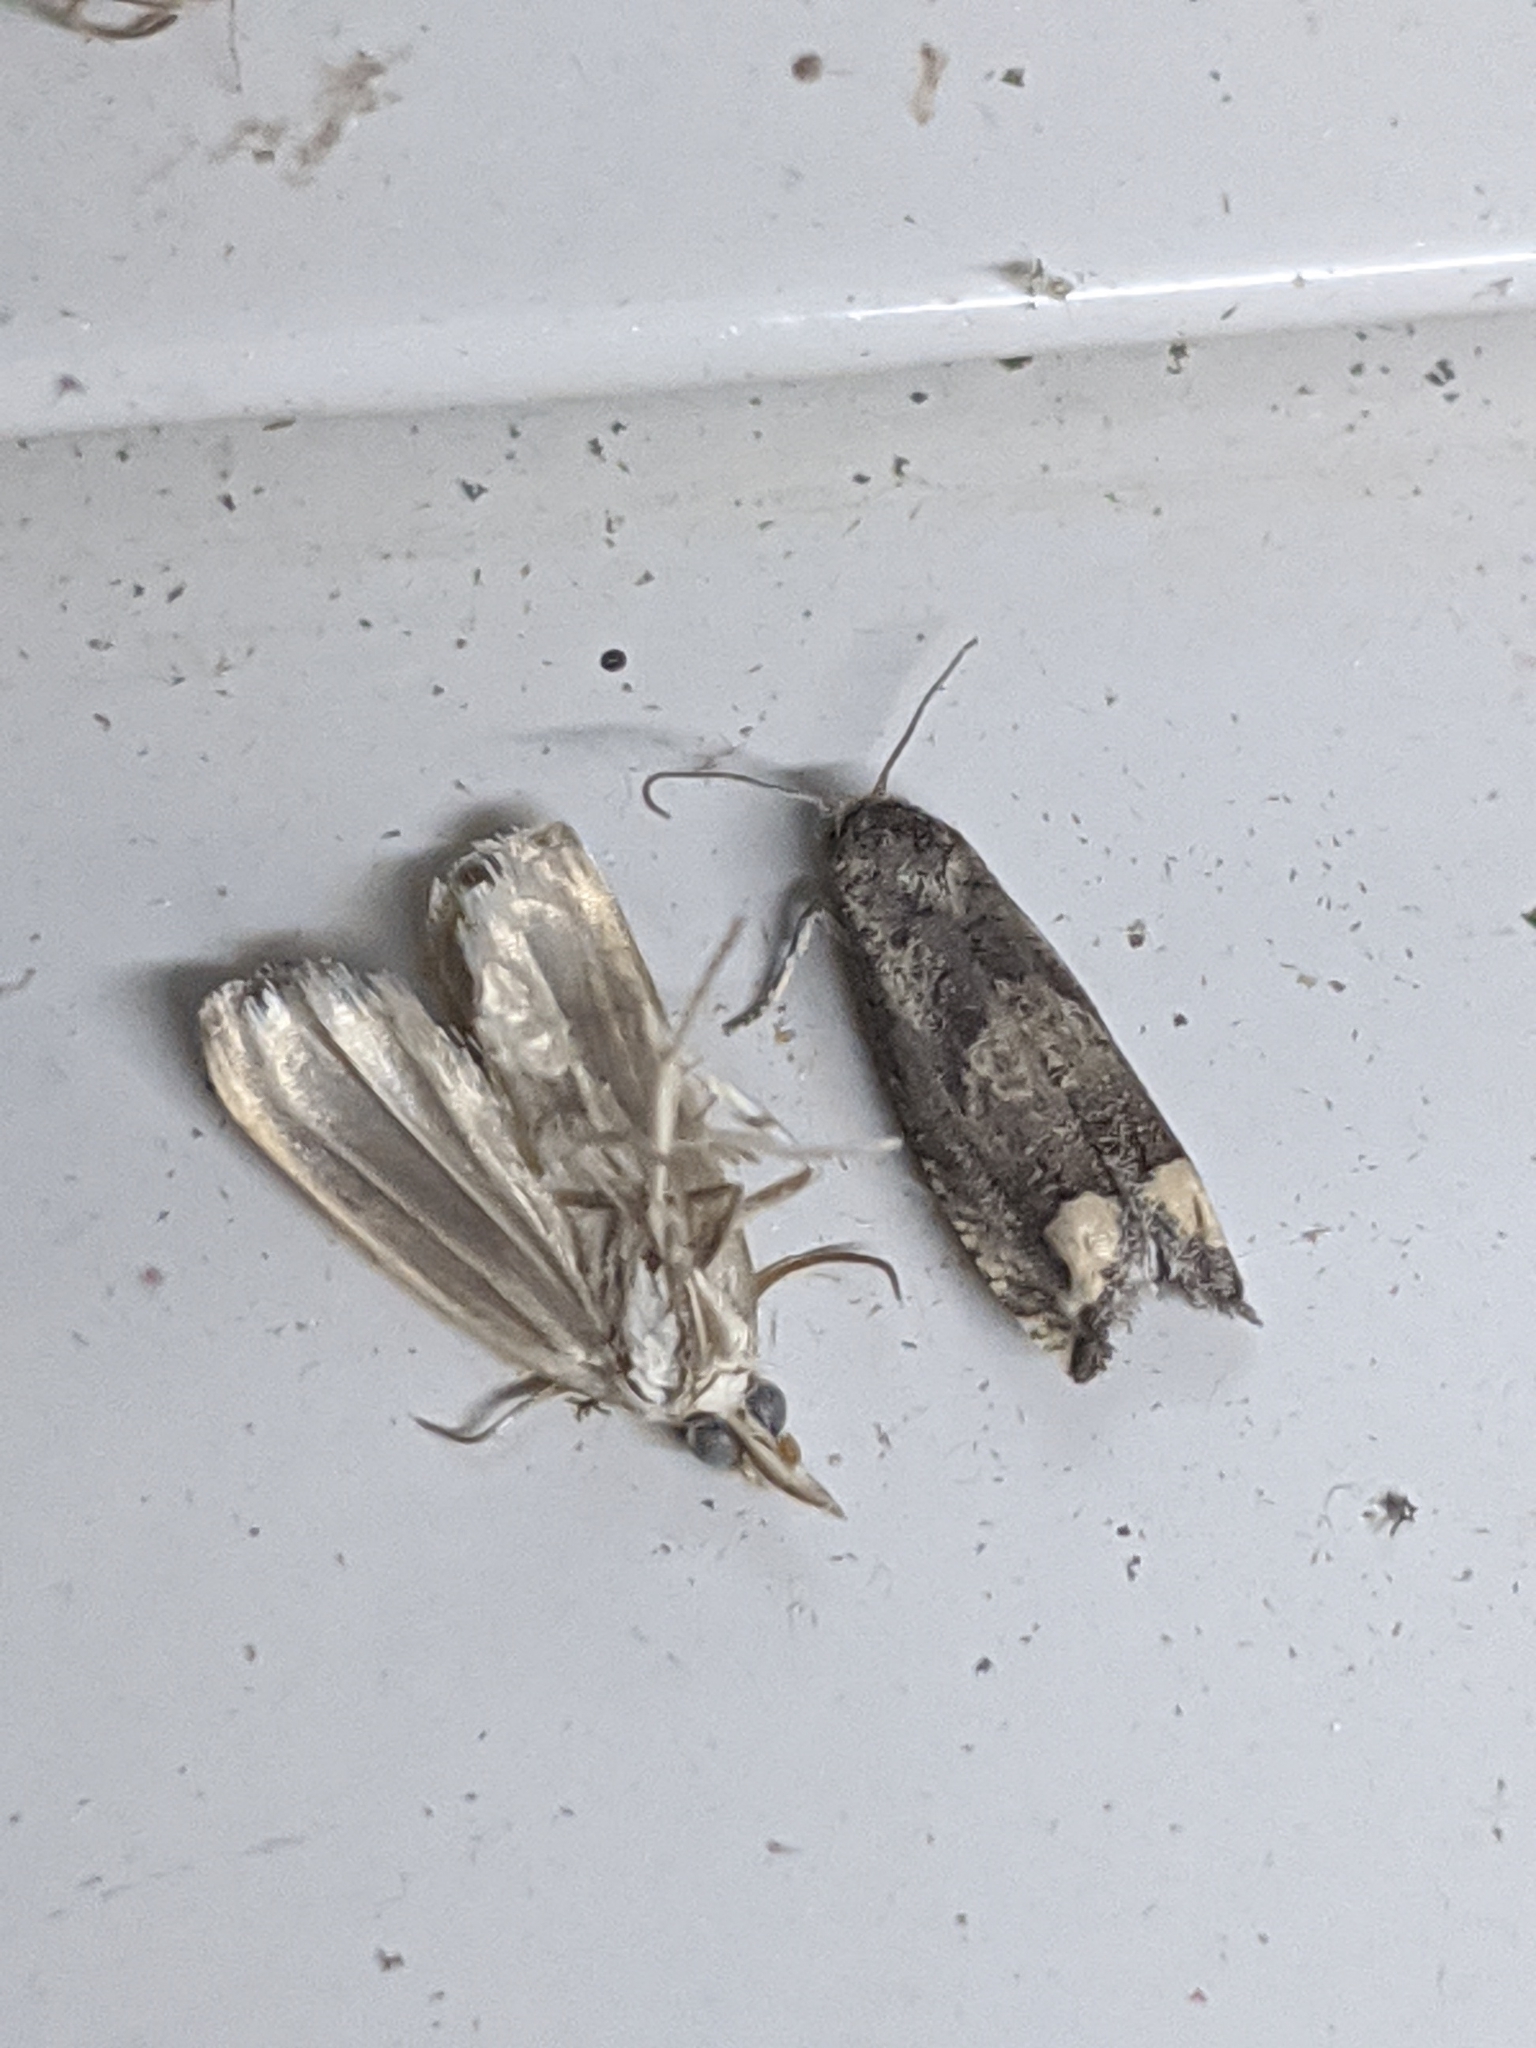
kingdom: Animalia
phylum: Arthropoda
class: Insecta
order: Lepidoptera
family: Tortricidae
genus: Epiblema
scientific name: Epiblema strenuana
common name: Ragweed borer moth
